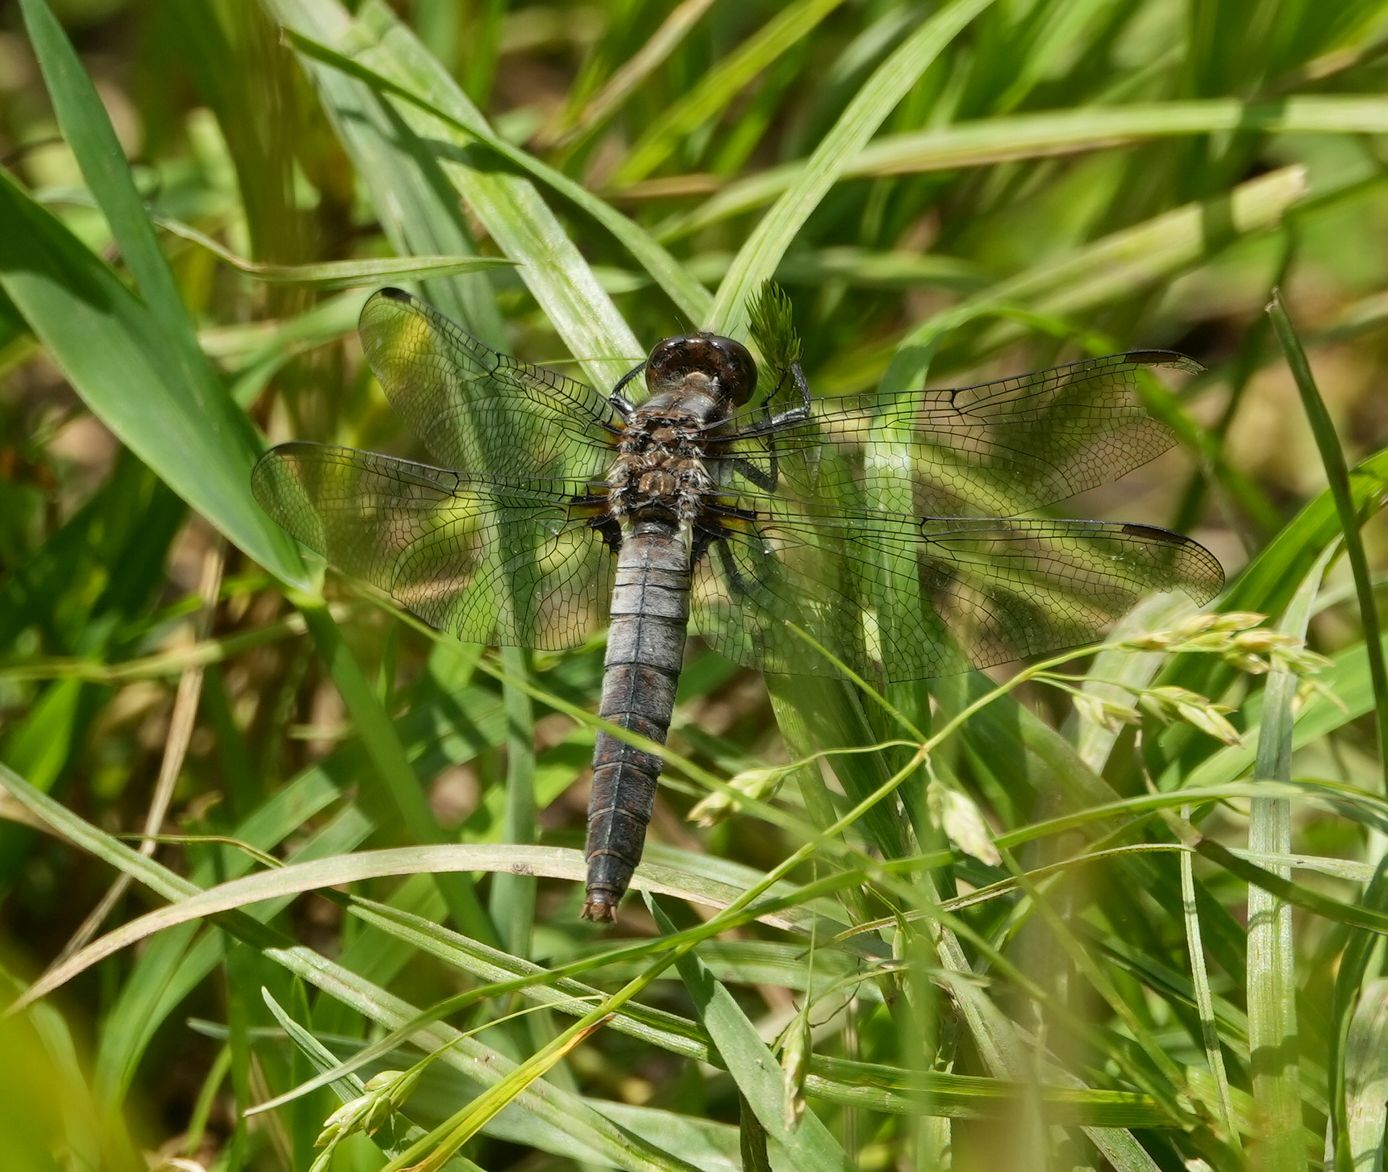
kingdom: Animalia
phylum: Arthropoda
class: Insecta
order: Odonata
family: Libellulidae
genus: Ladona
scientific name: Ladona julia
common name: Chalk-fronted corporal
